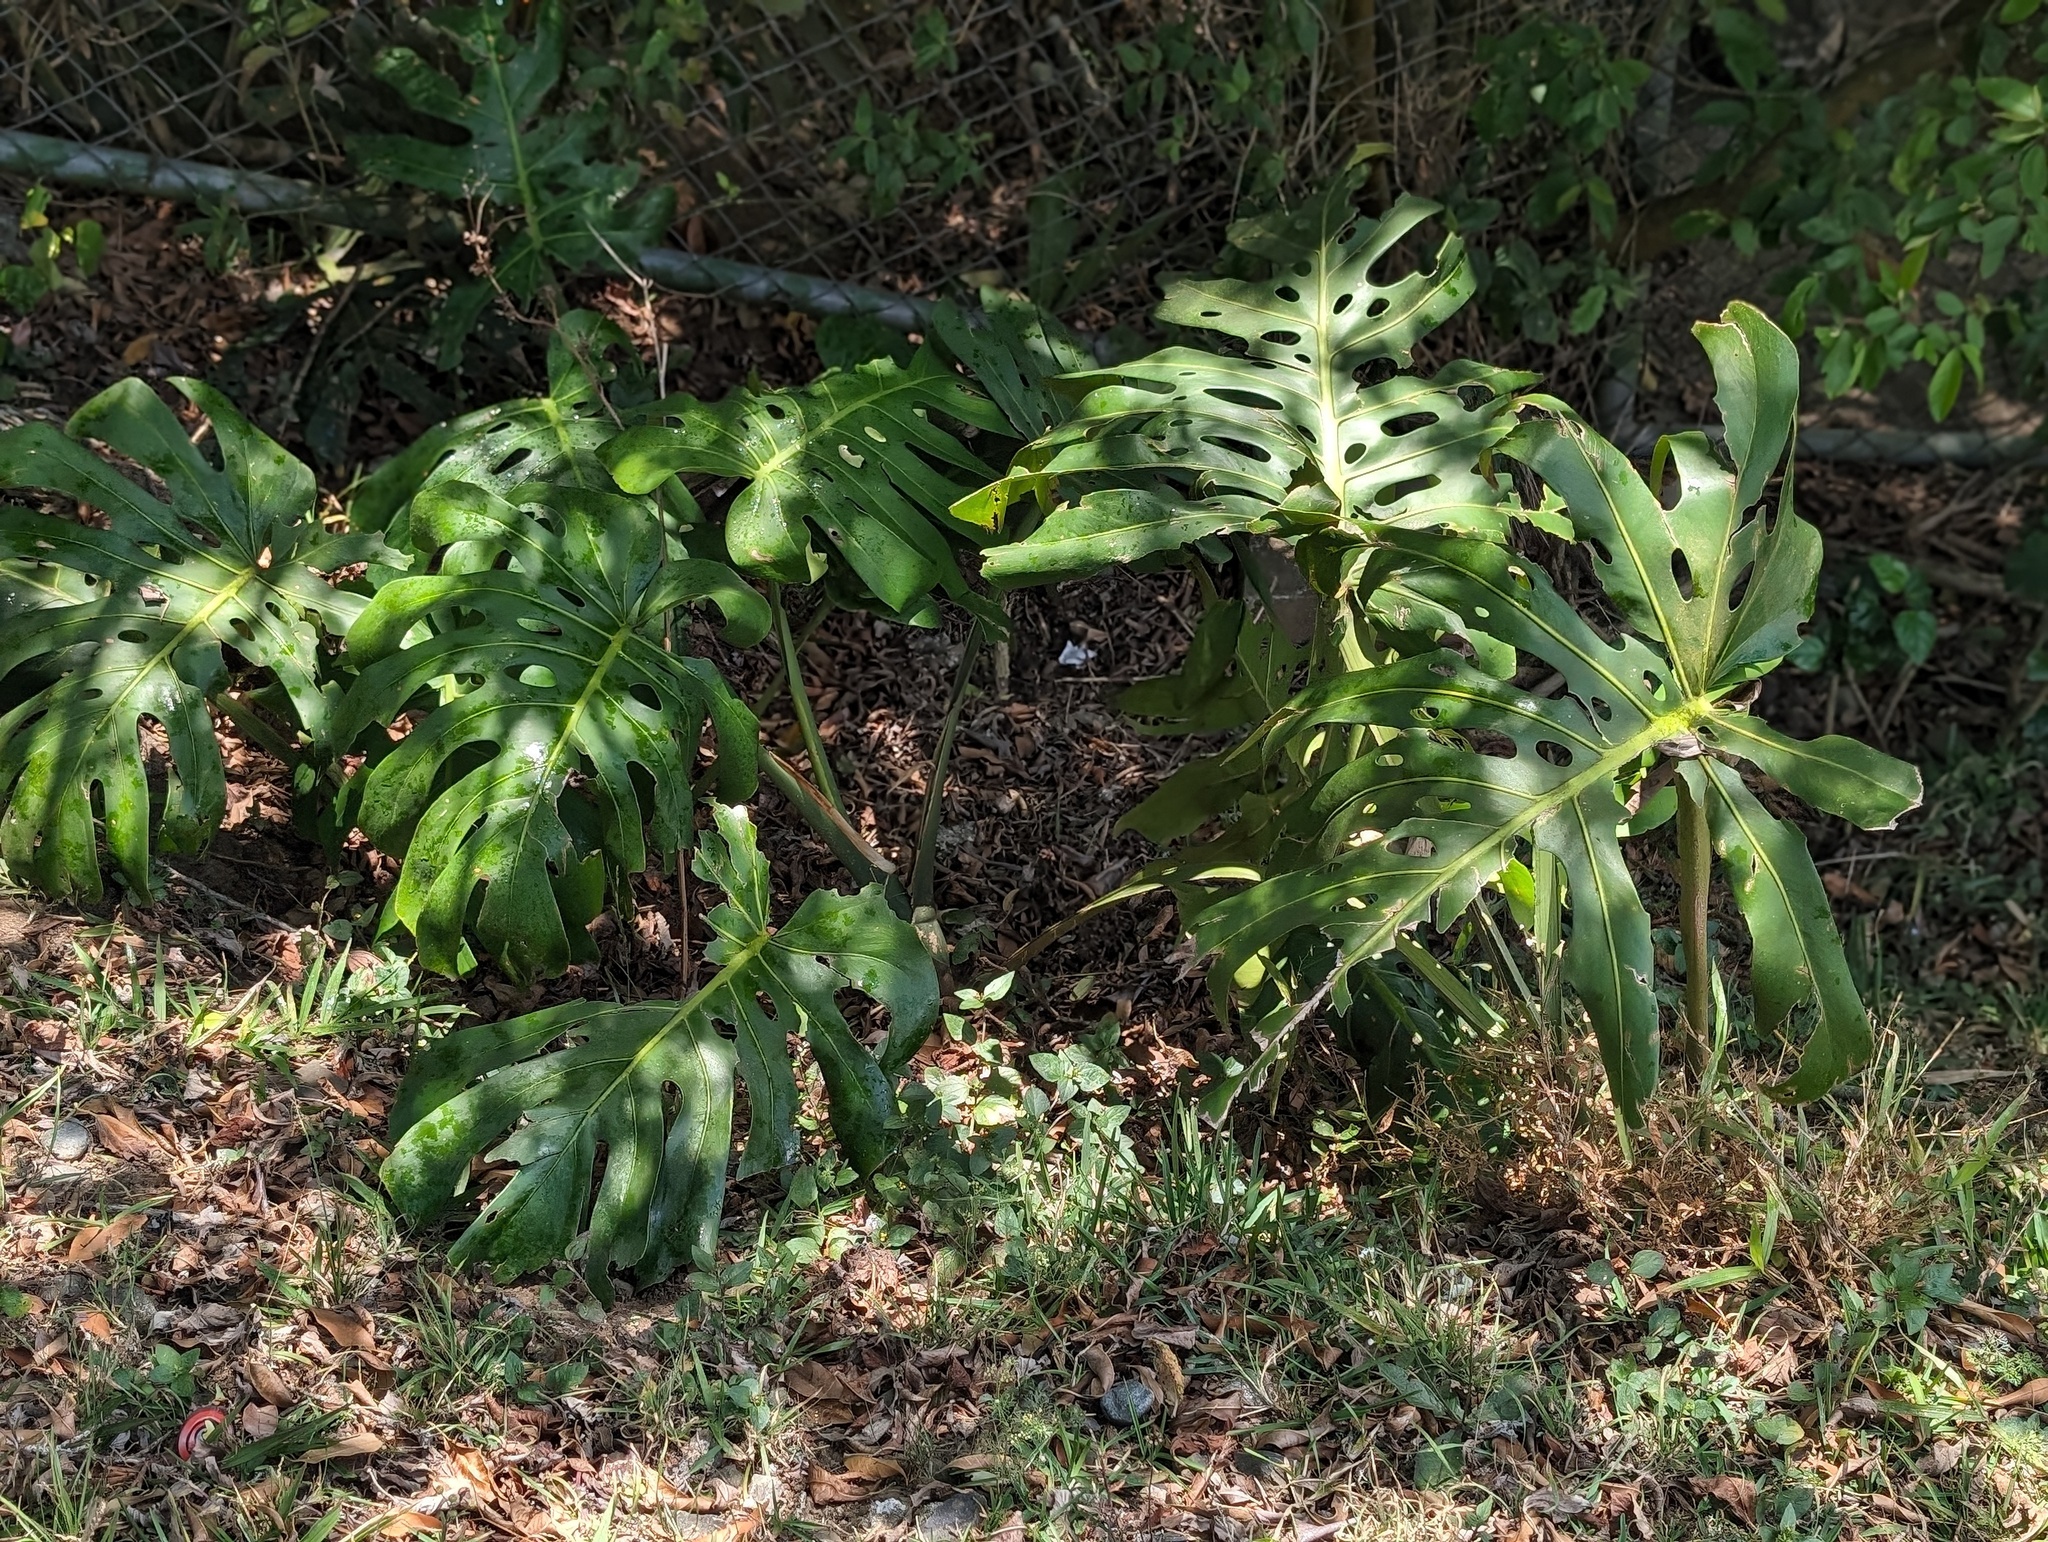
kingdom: Plantae
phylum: Tracheophyta
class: Liliopsida
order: Alismatales
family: Araceae
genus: Monstera
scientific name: Monstera deliciosa
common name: Cut-leaf-philodendron
